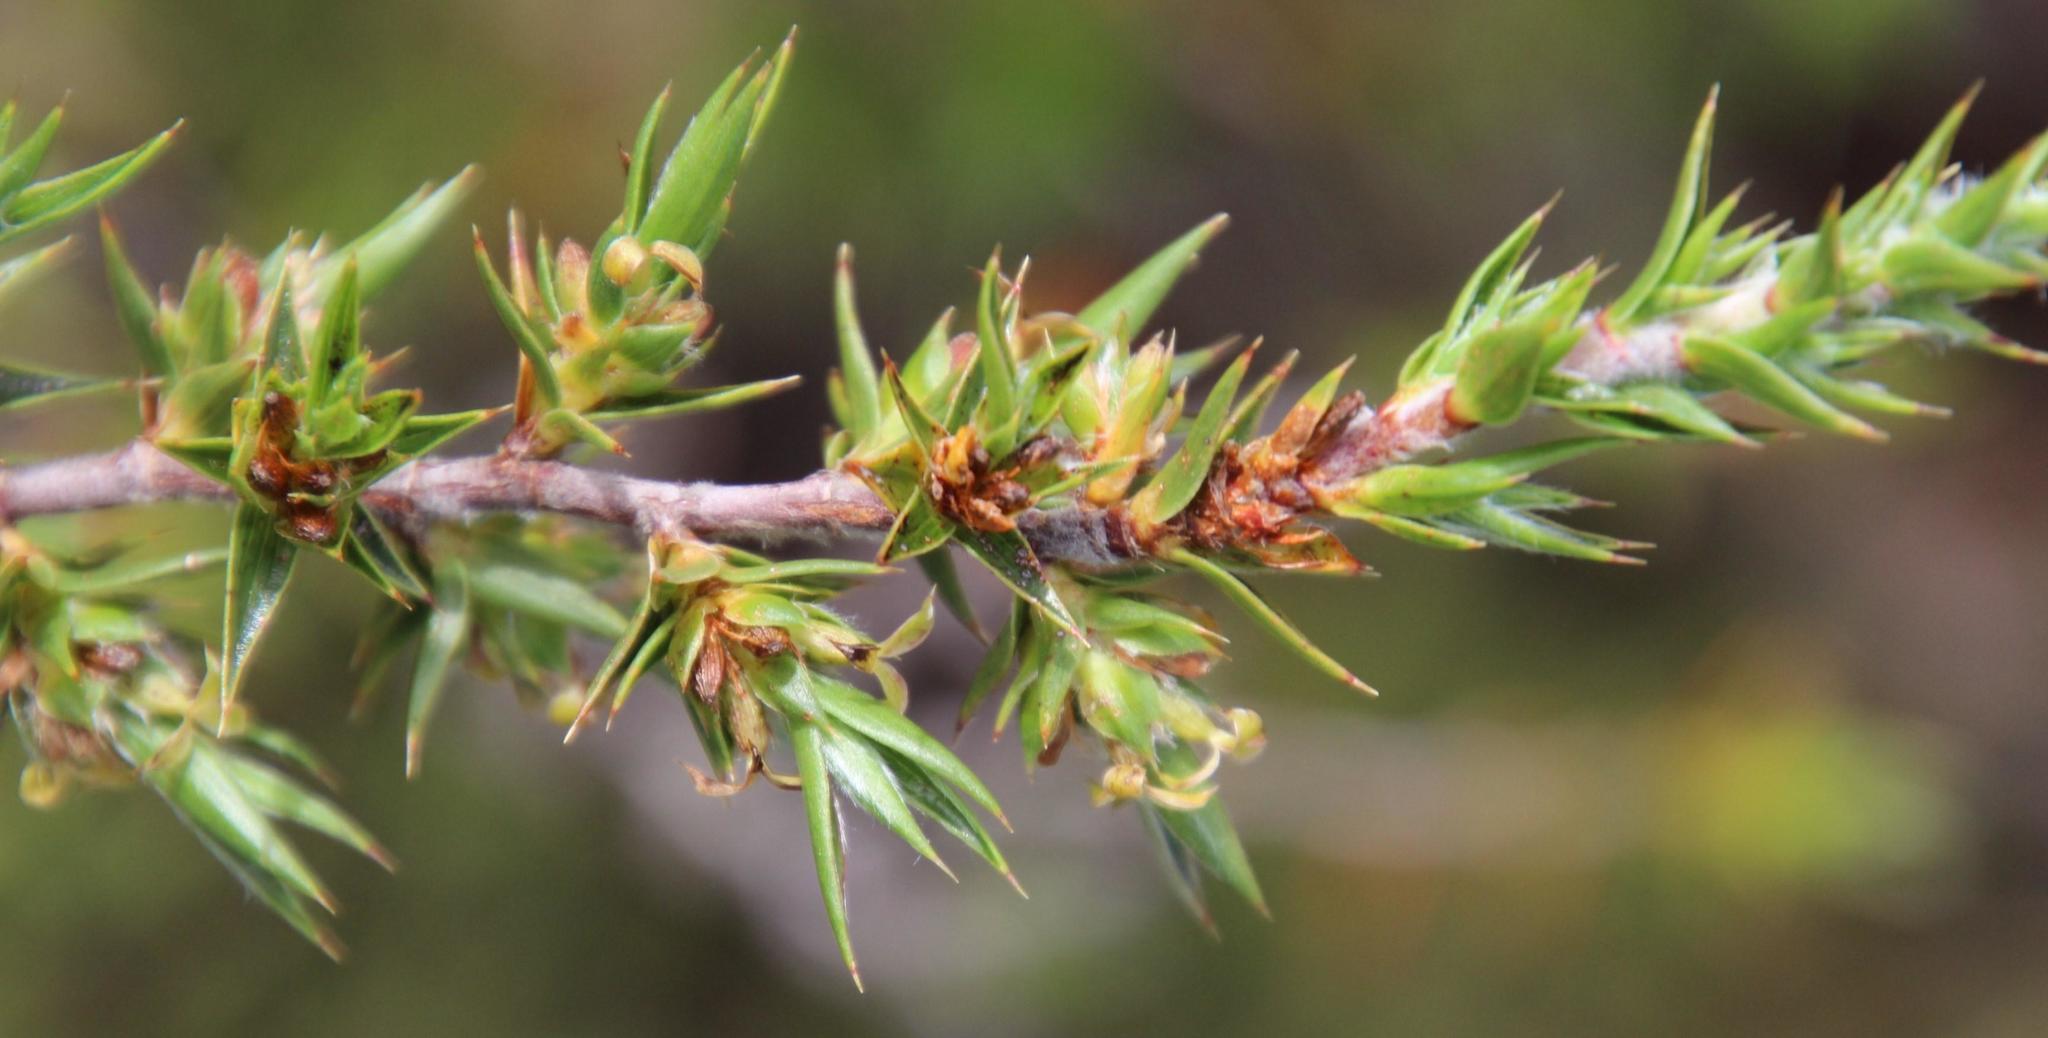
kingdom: Plantae
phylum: Tracheophyta
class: Magnoliopsida
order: Rosales
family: Rosaceae
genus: Cliffortia
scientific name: Cliffortia ruscifolia
